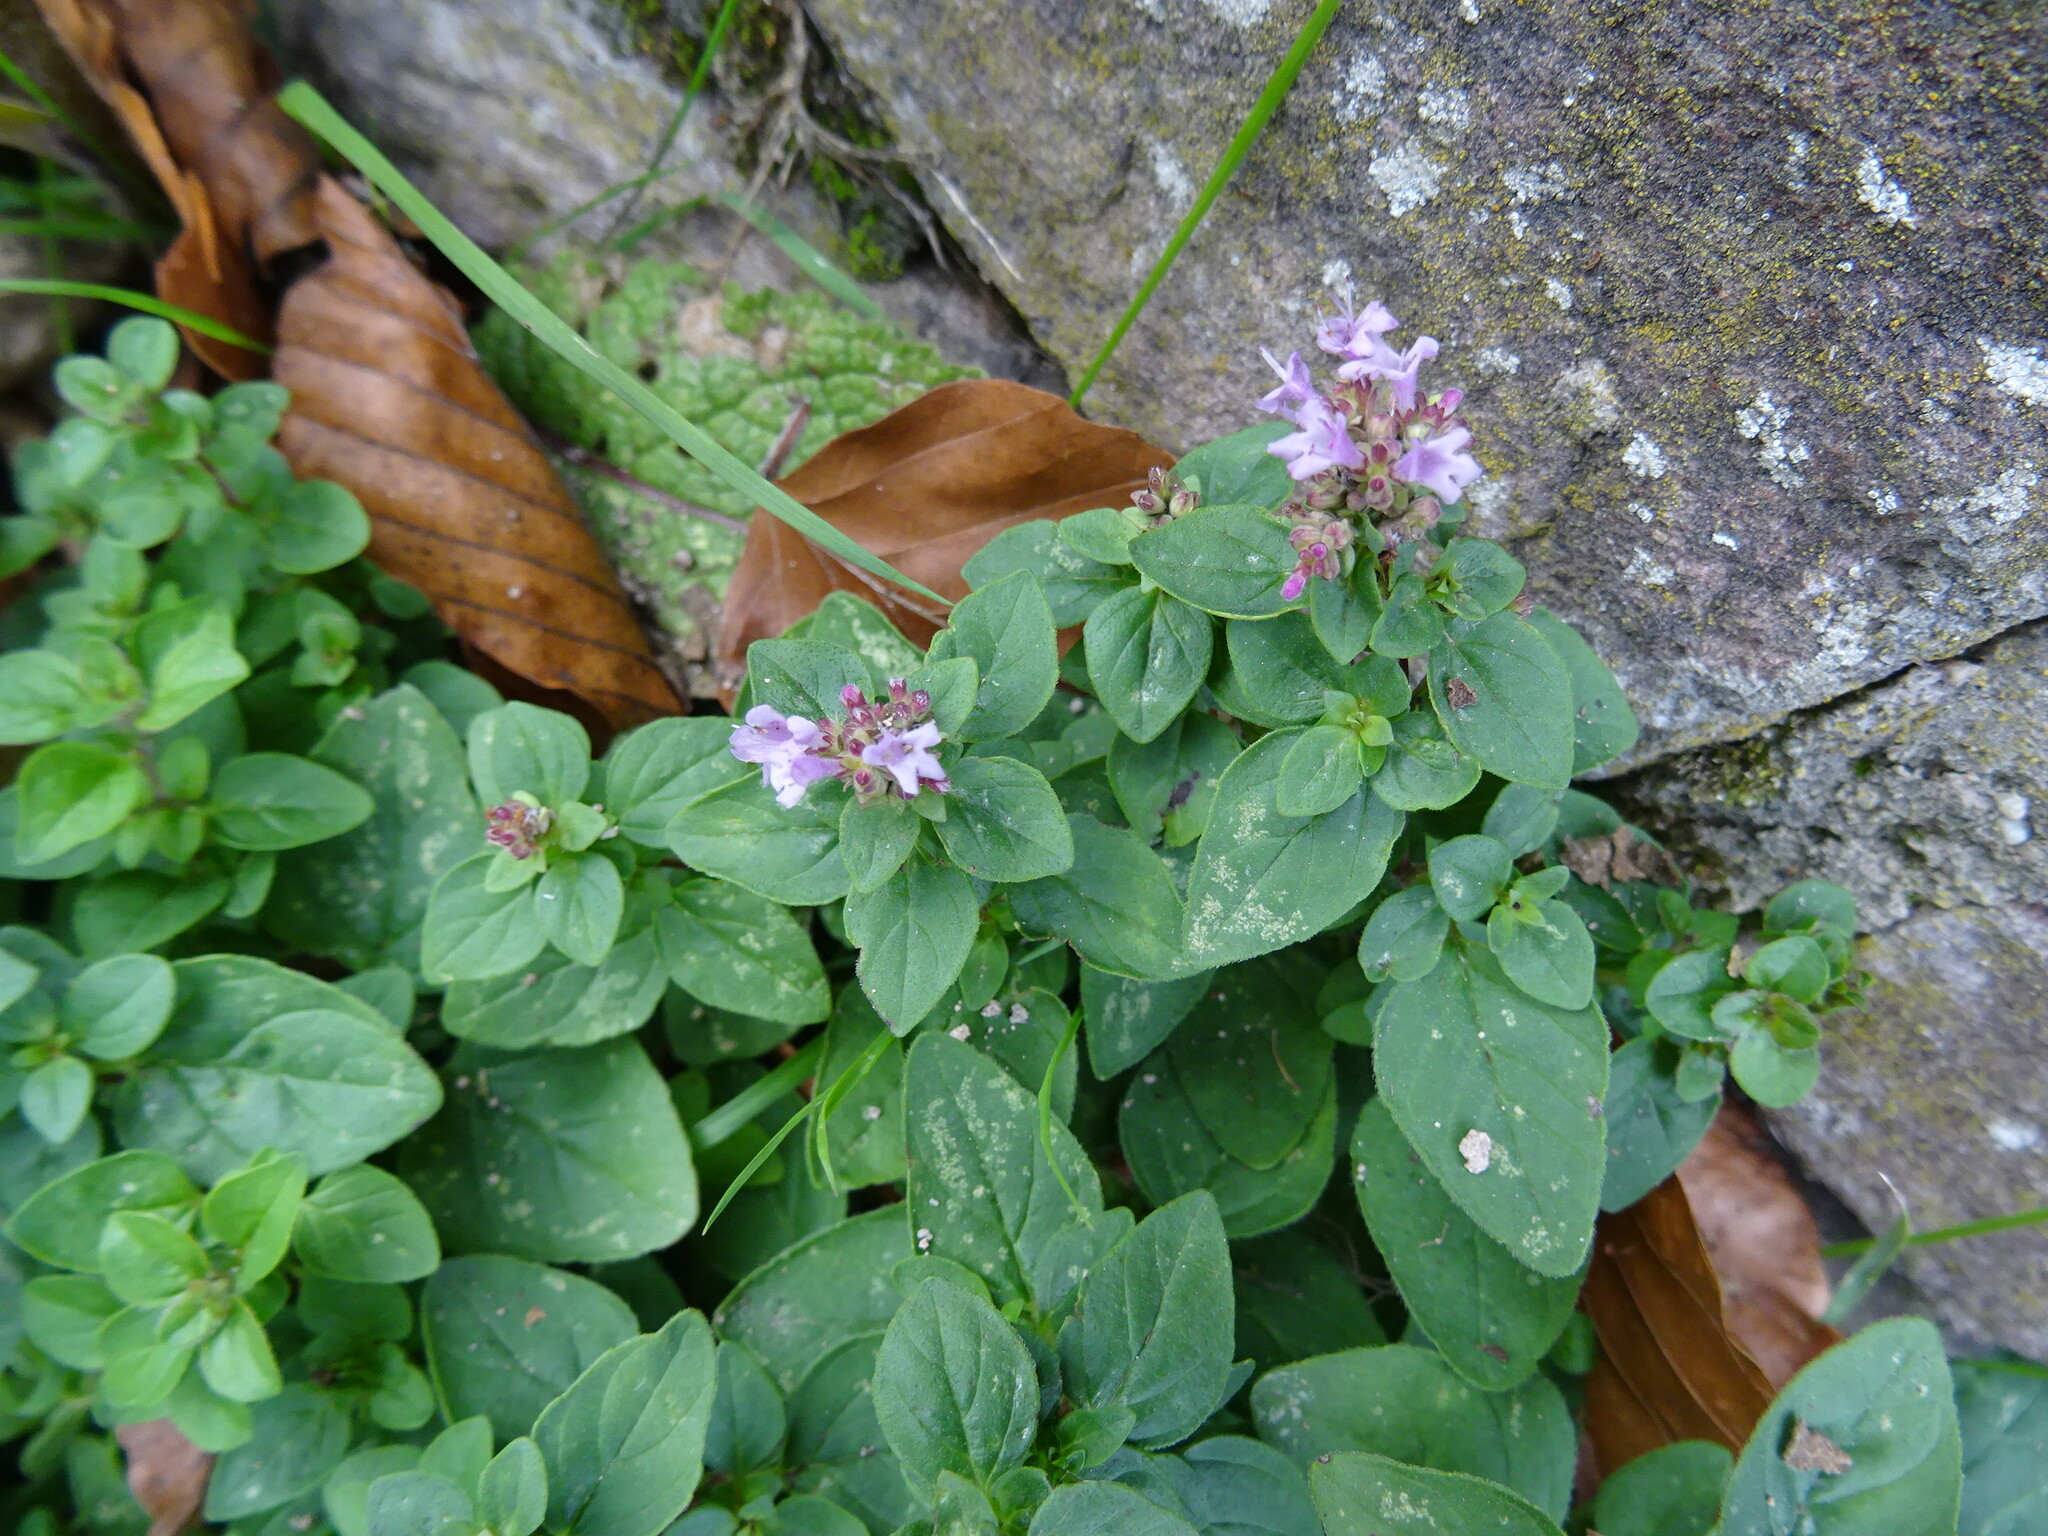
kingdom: Plantae
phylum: Tracheophyta
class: Magnoliopsida
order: Lamiales
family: Lamiaceae
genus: Origanum
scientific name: Origanum vulgare
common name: Wild marjoram
